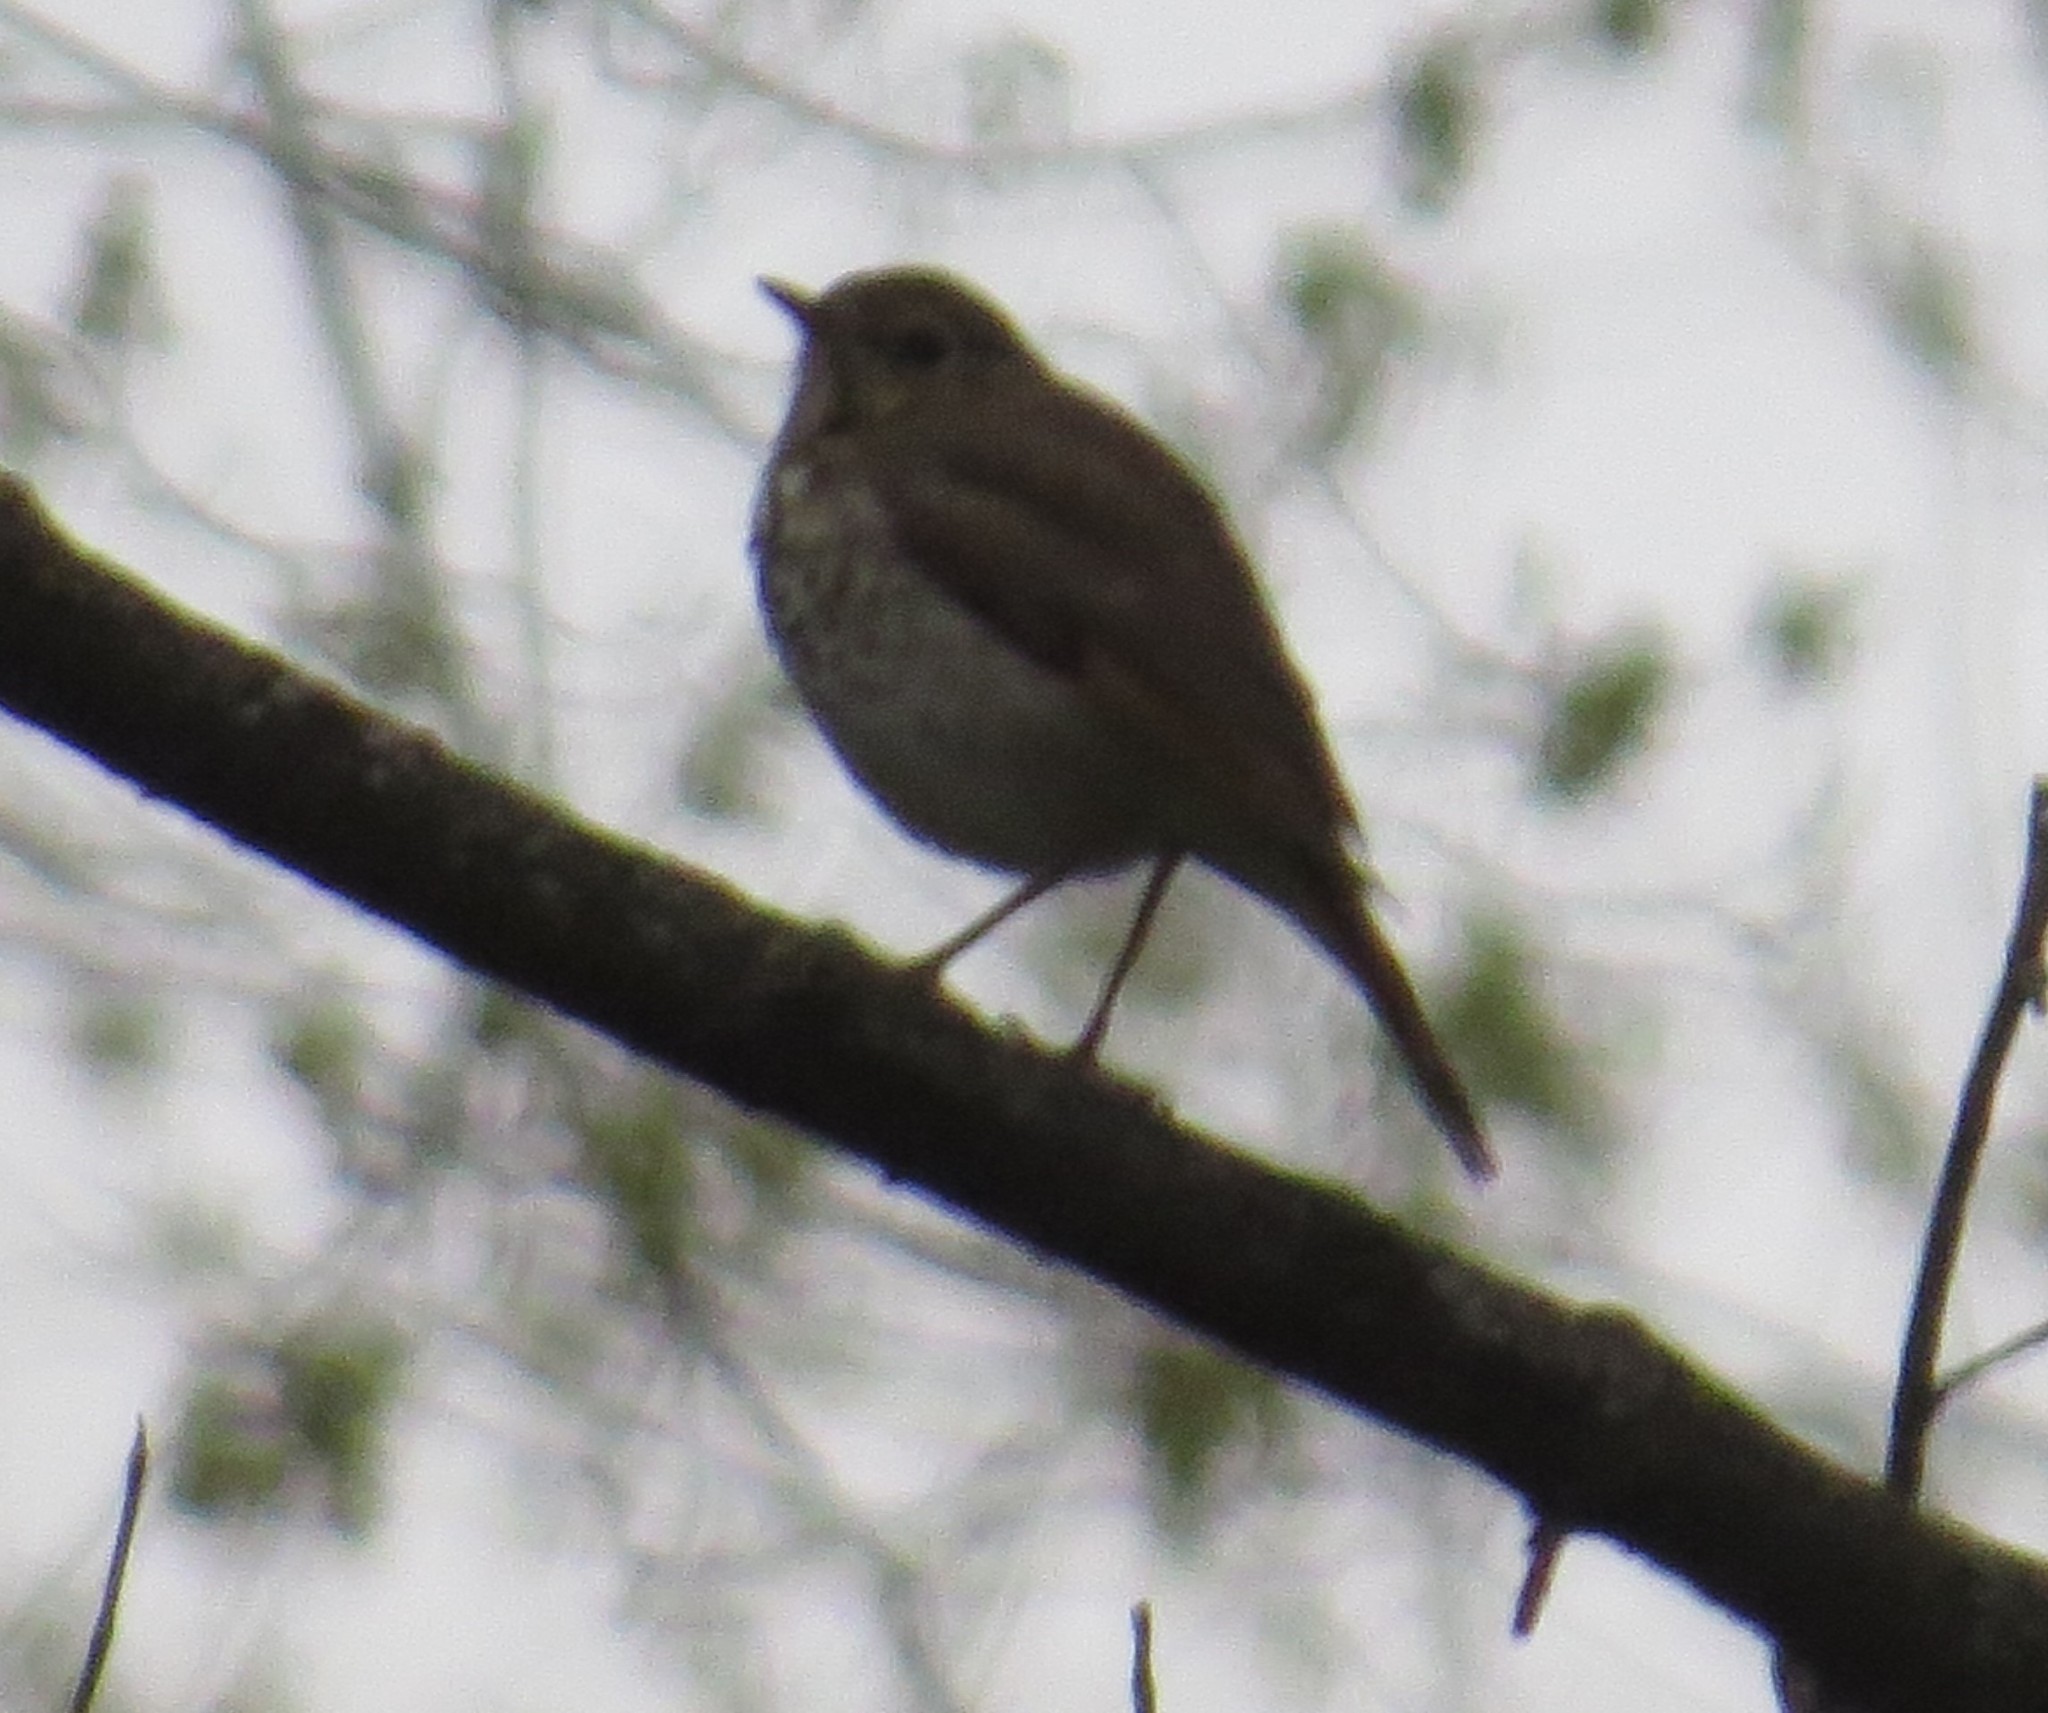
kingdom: Animalia
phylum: Chordata
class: Aves
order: Passeriformes
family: Turdidae
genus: Catharus
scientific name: Catharus guttatus
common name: Hermit thrush
